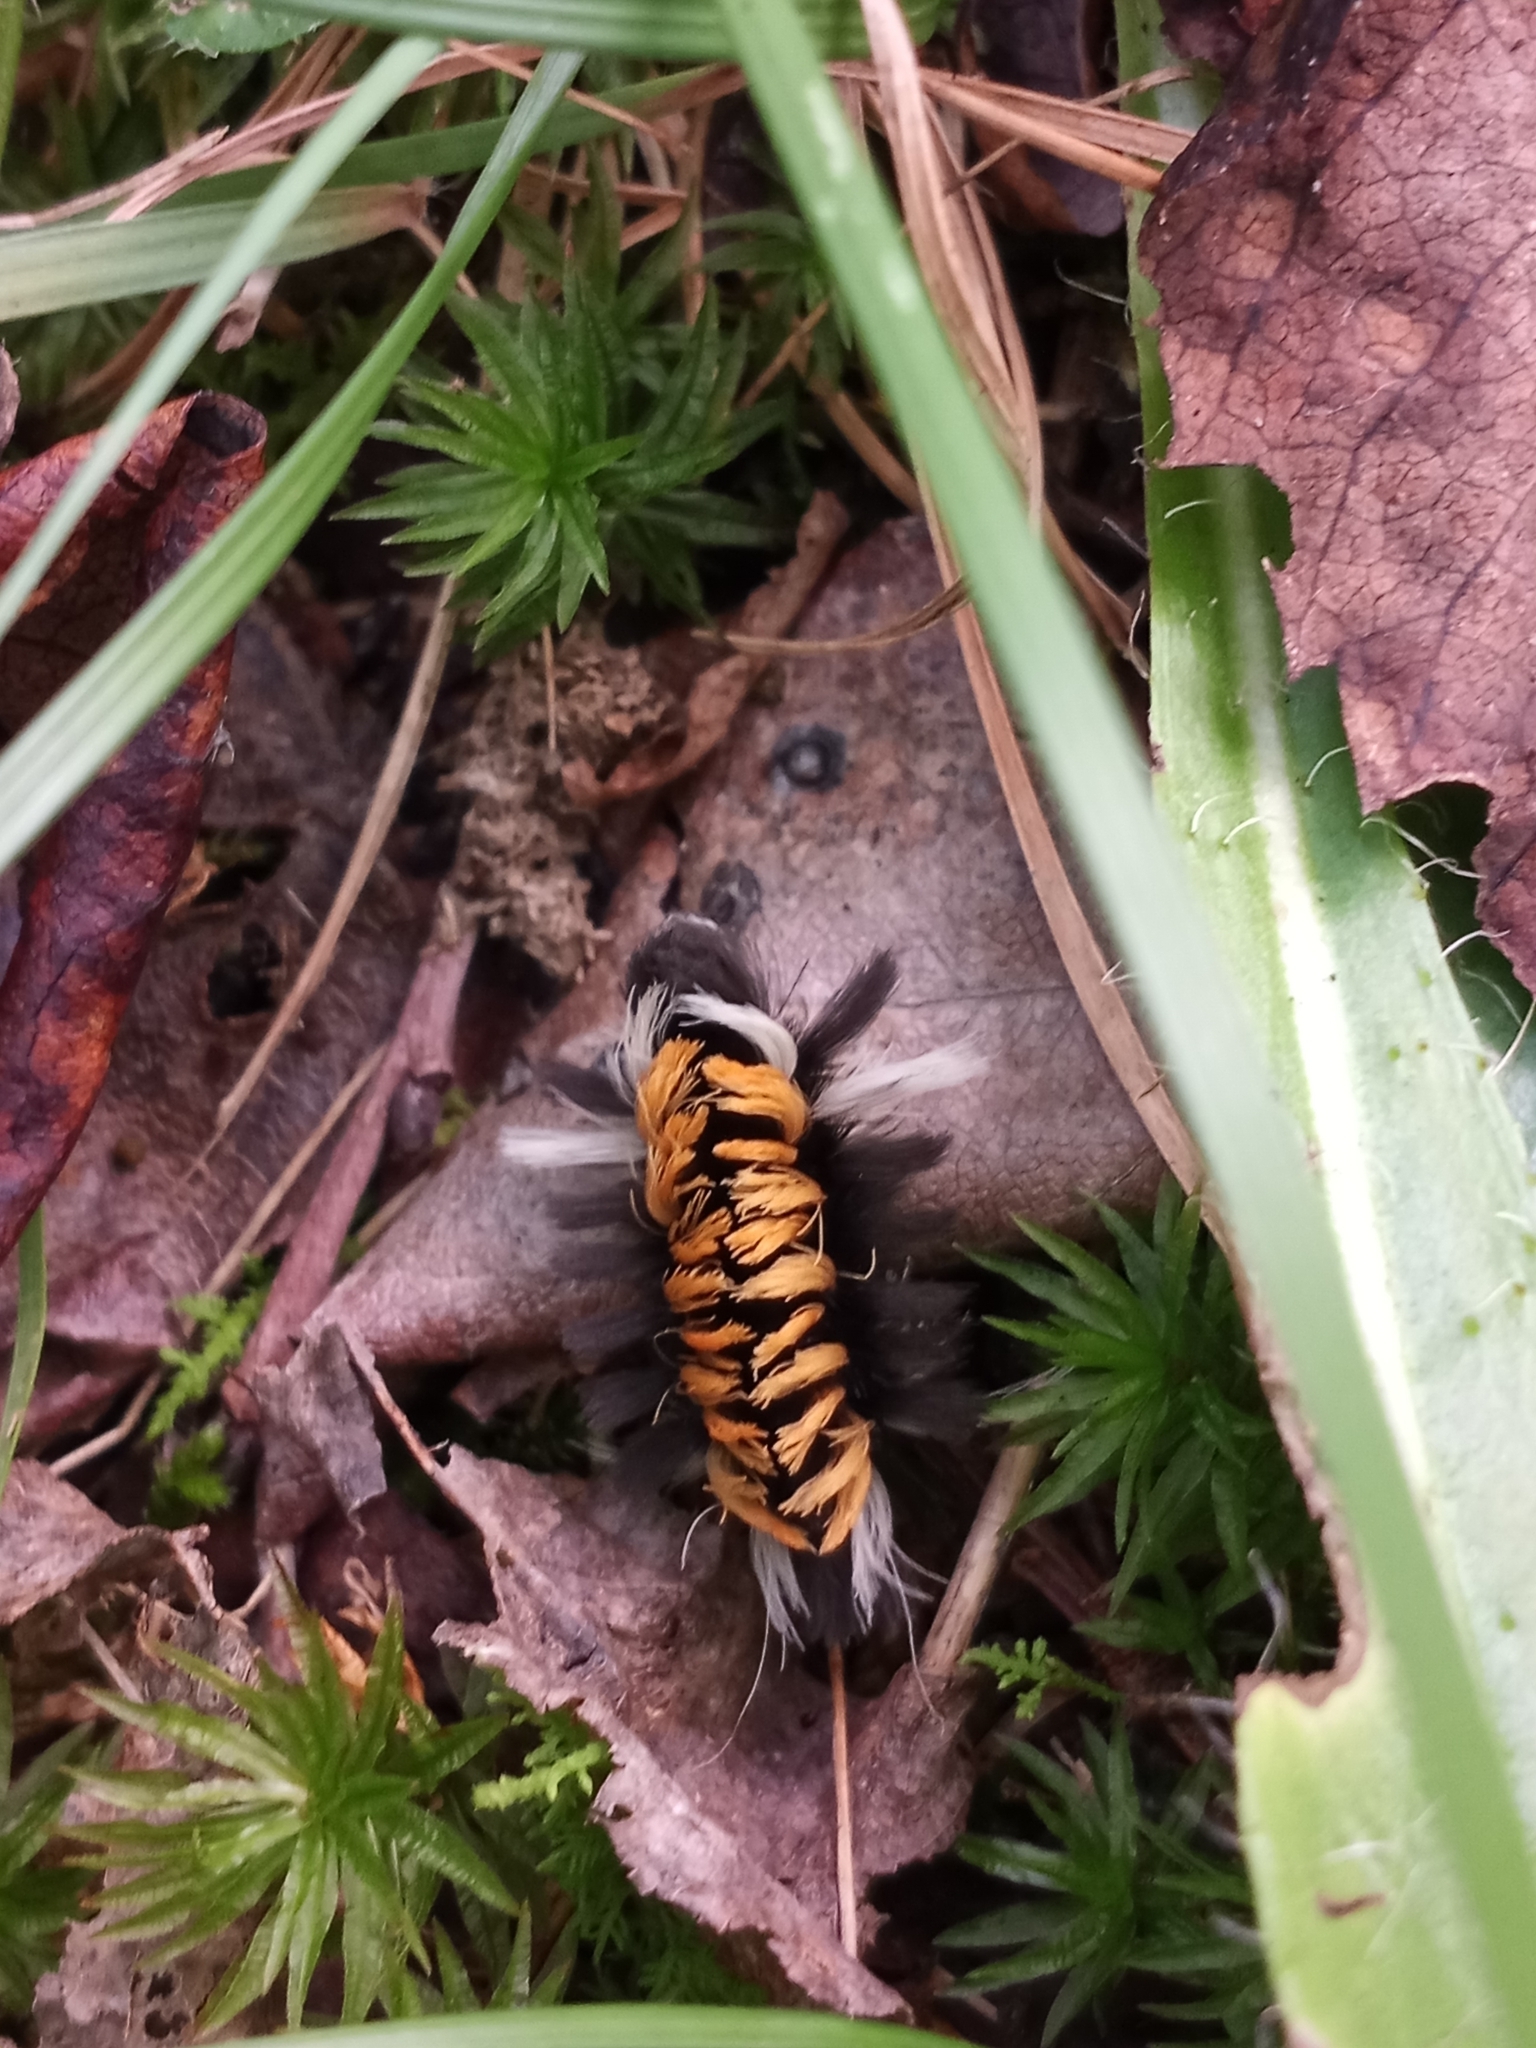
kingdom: Animalia
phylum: Arthropoda
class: Insecta
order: Lepidoptera
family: Erebidae
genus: Euchaetes
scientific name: Euchaetes egle
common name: Milkweed tussock moth
